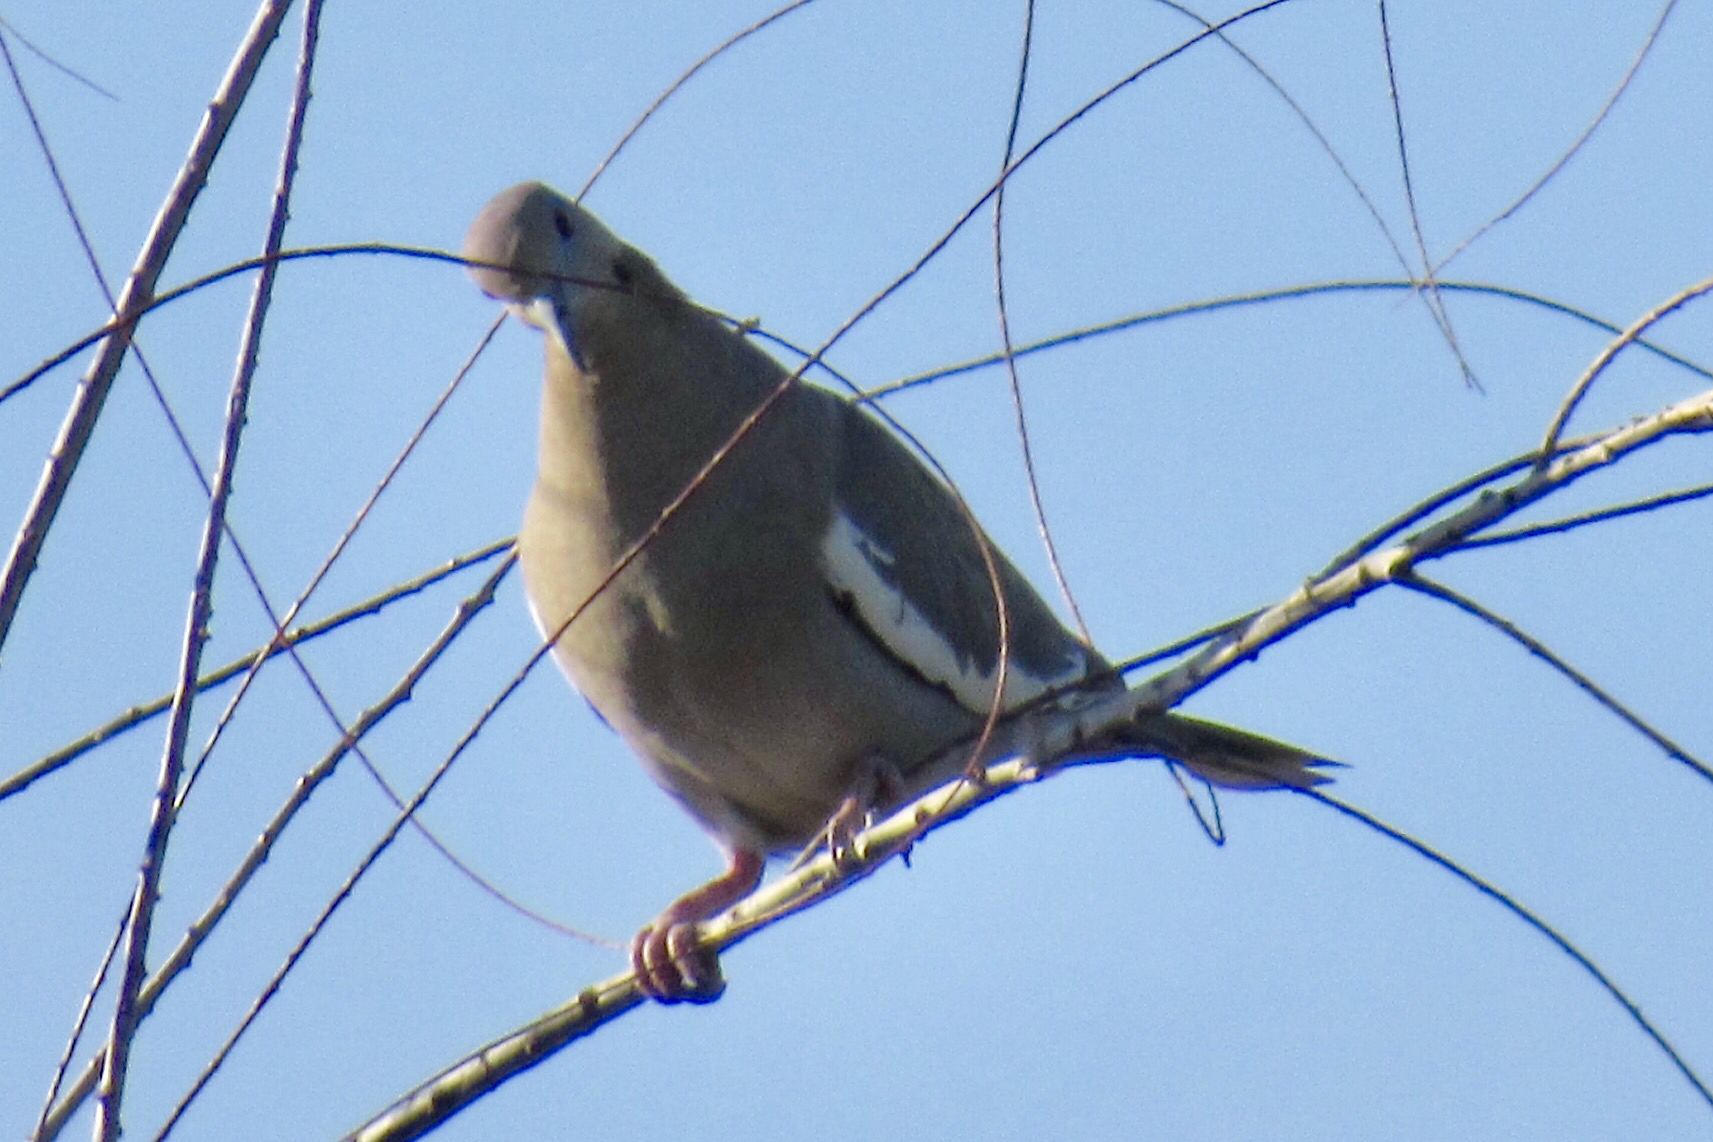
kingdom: Animalia
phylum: Chordata
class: Aves
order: Columbiformes
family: Columbidae
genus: Zenaida
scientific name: Zenaida asiatica
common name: White-winged dove
